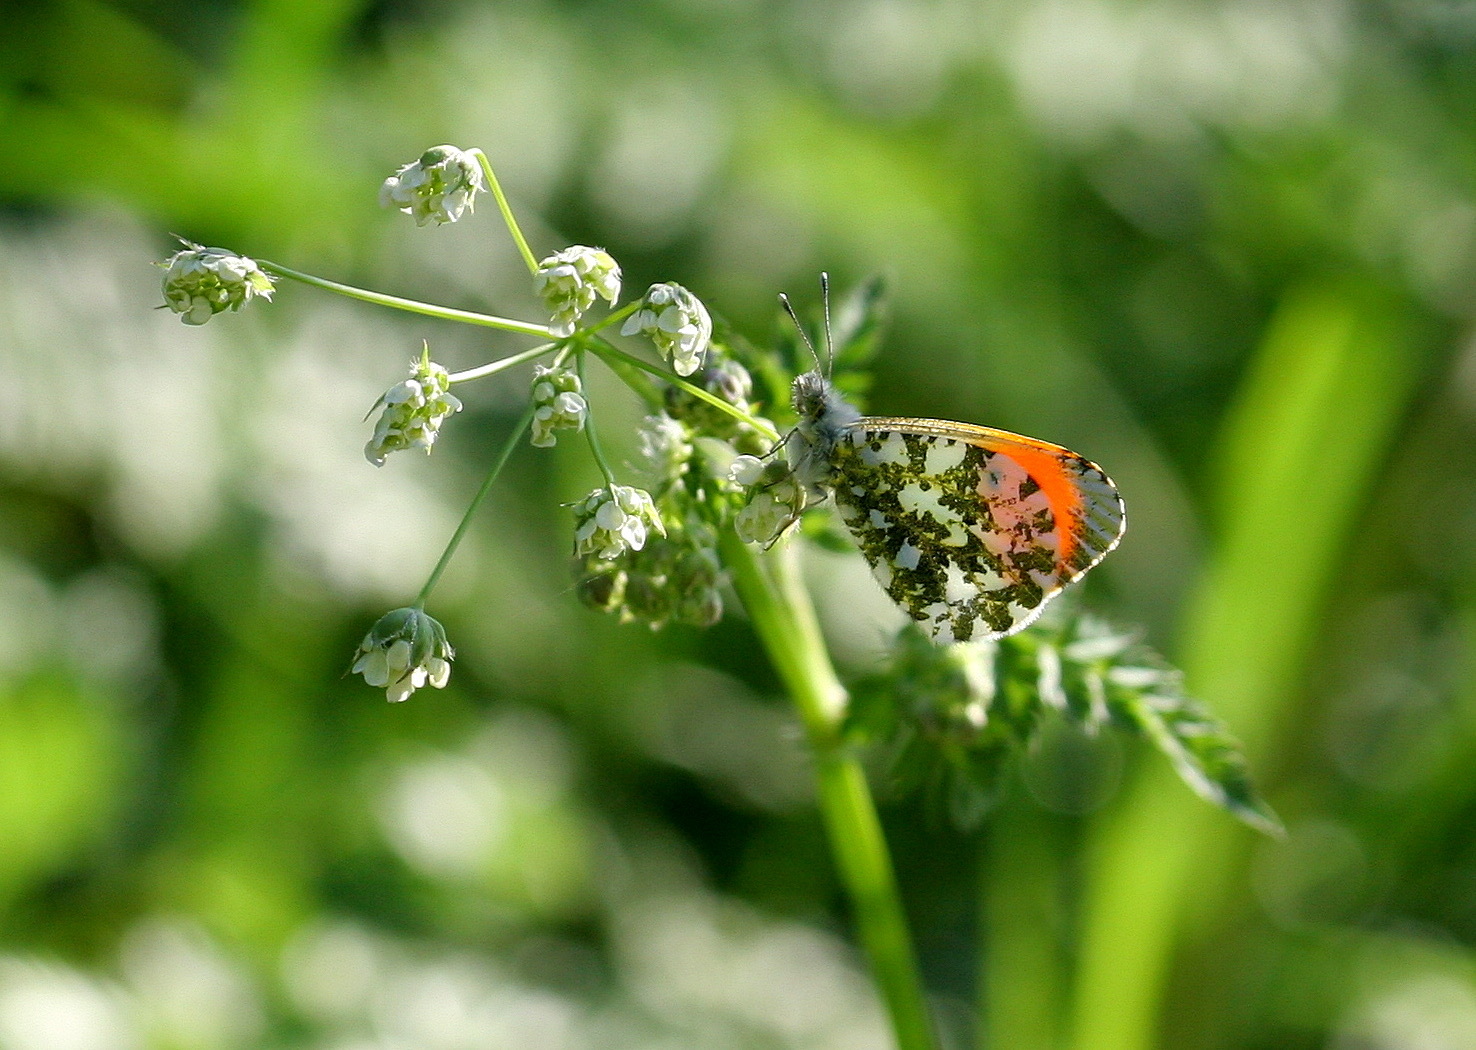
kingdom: Animalia
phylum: Arthropoda
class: Insecta
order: Lepidoptera
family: Pieridae
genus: Anthocharis
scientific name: Anthocharis cardamines
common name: Orange-tip
